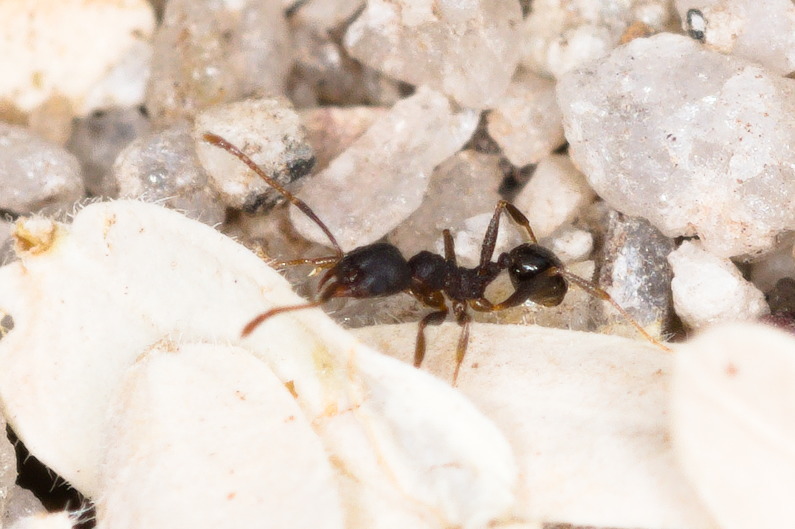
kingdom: Animalia
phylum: Arthropoda
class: Insecta
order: Hymenoptera
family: Formicidae
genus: Pheidole
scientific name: Pheidole
